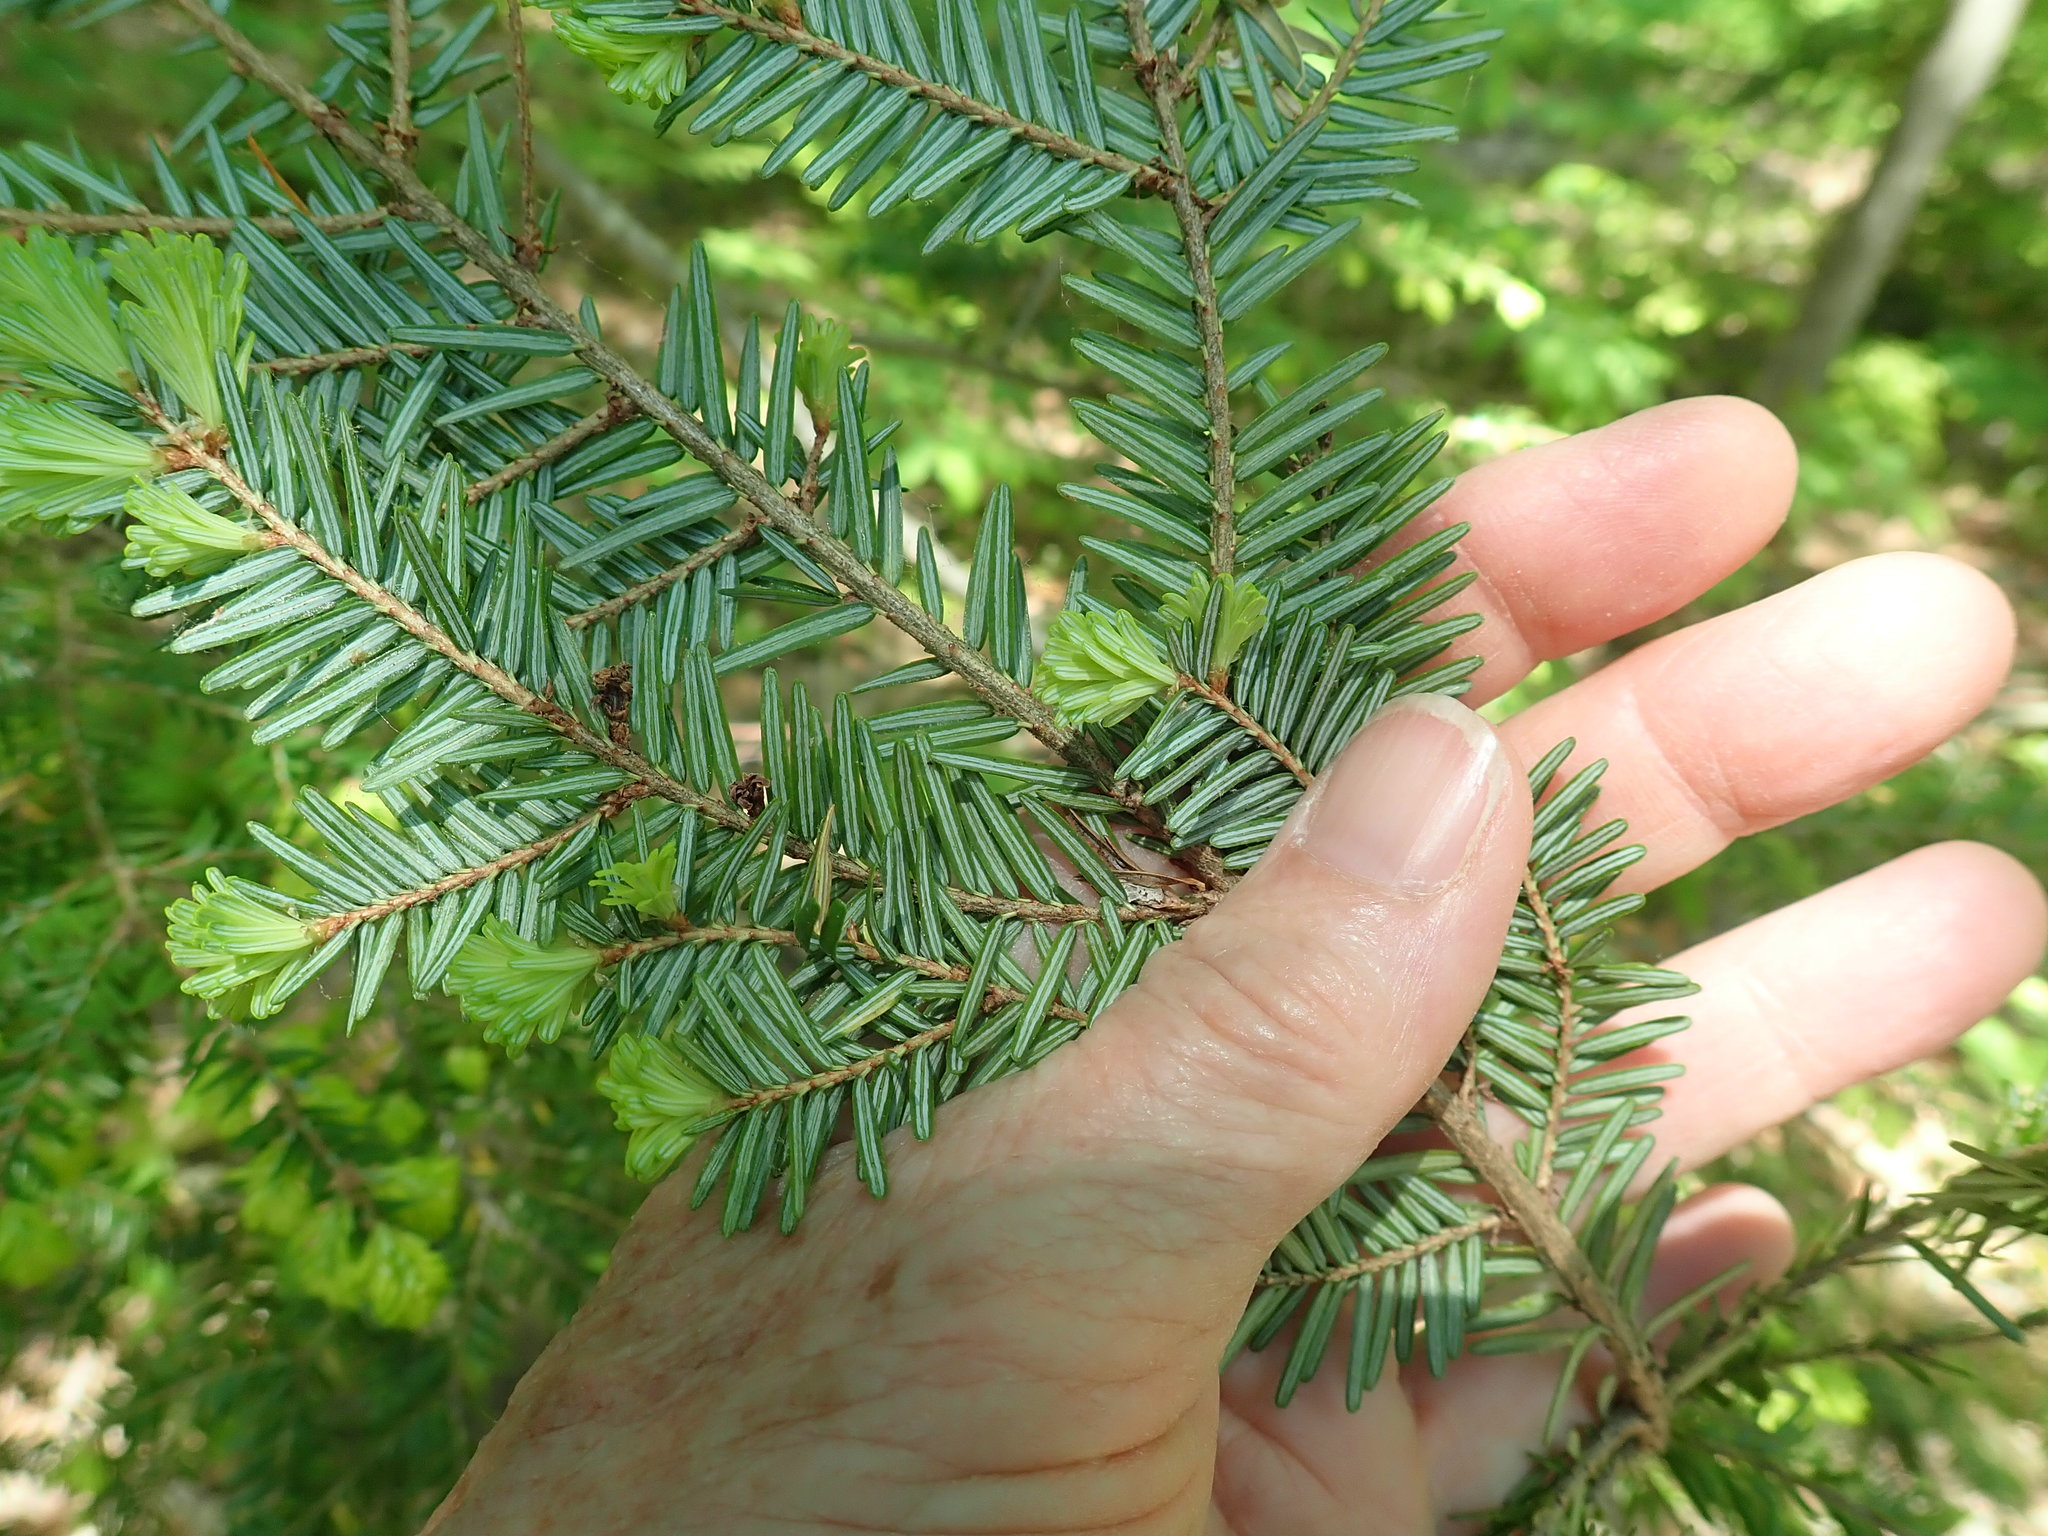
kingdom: Plantae
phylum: Tracheophyta
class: Pinopsida
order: Pinales
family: Pinaceae
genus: Tsuga
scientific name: Tsuga canadensis
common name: Eastern hemlock
